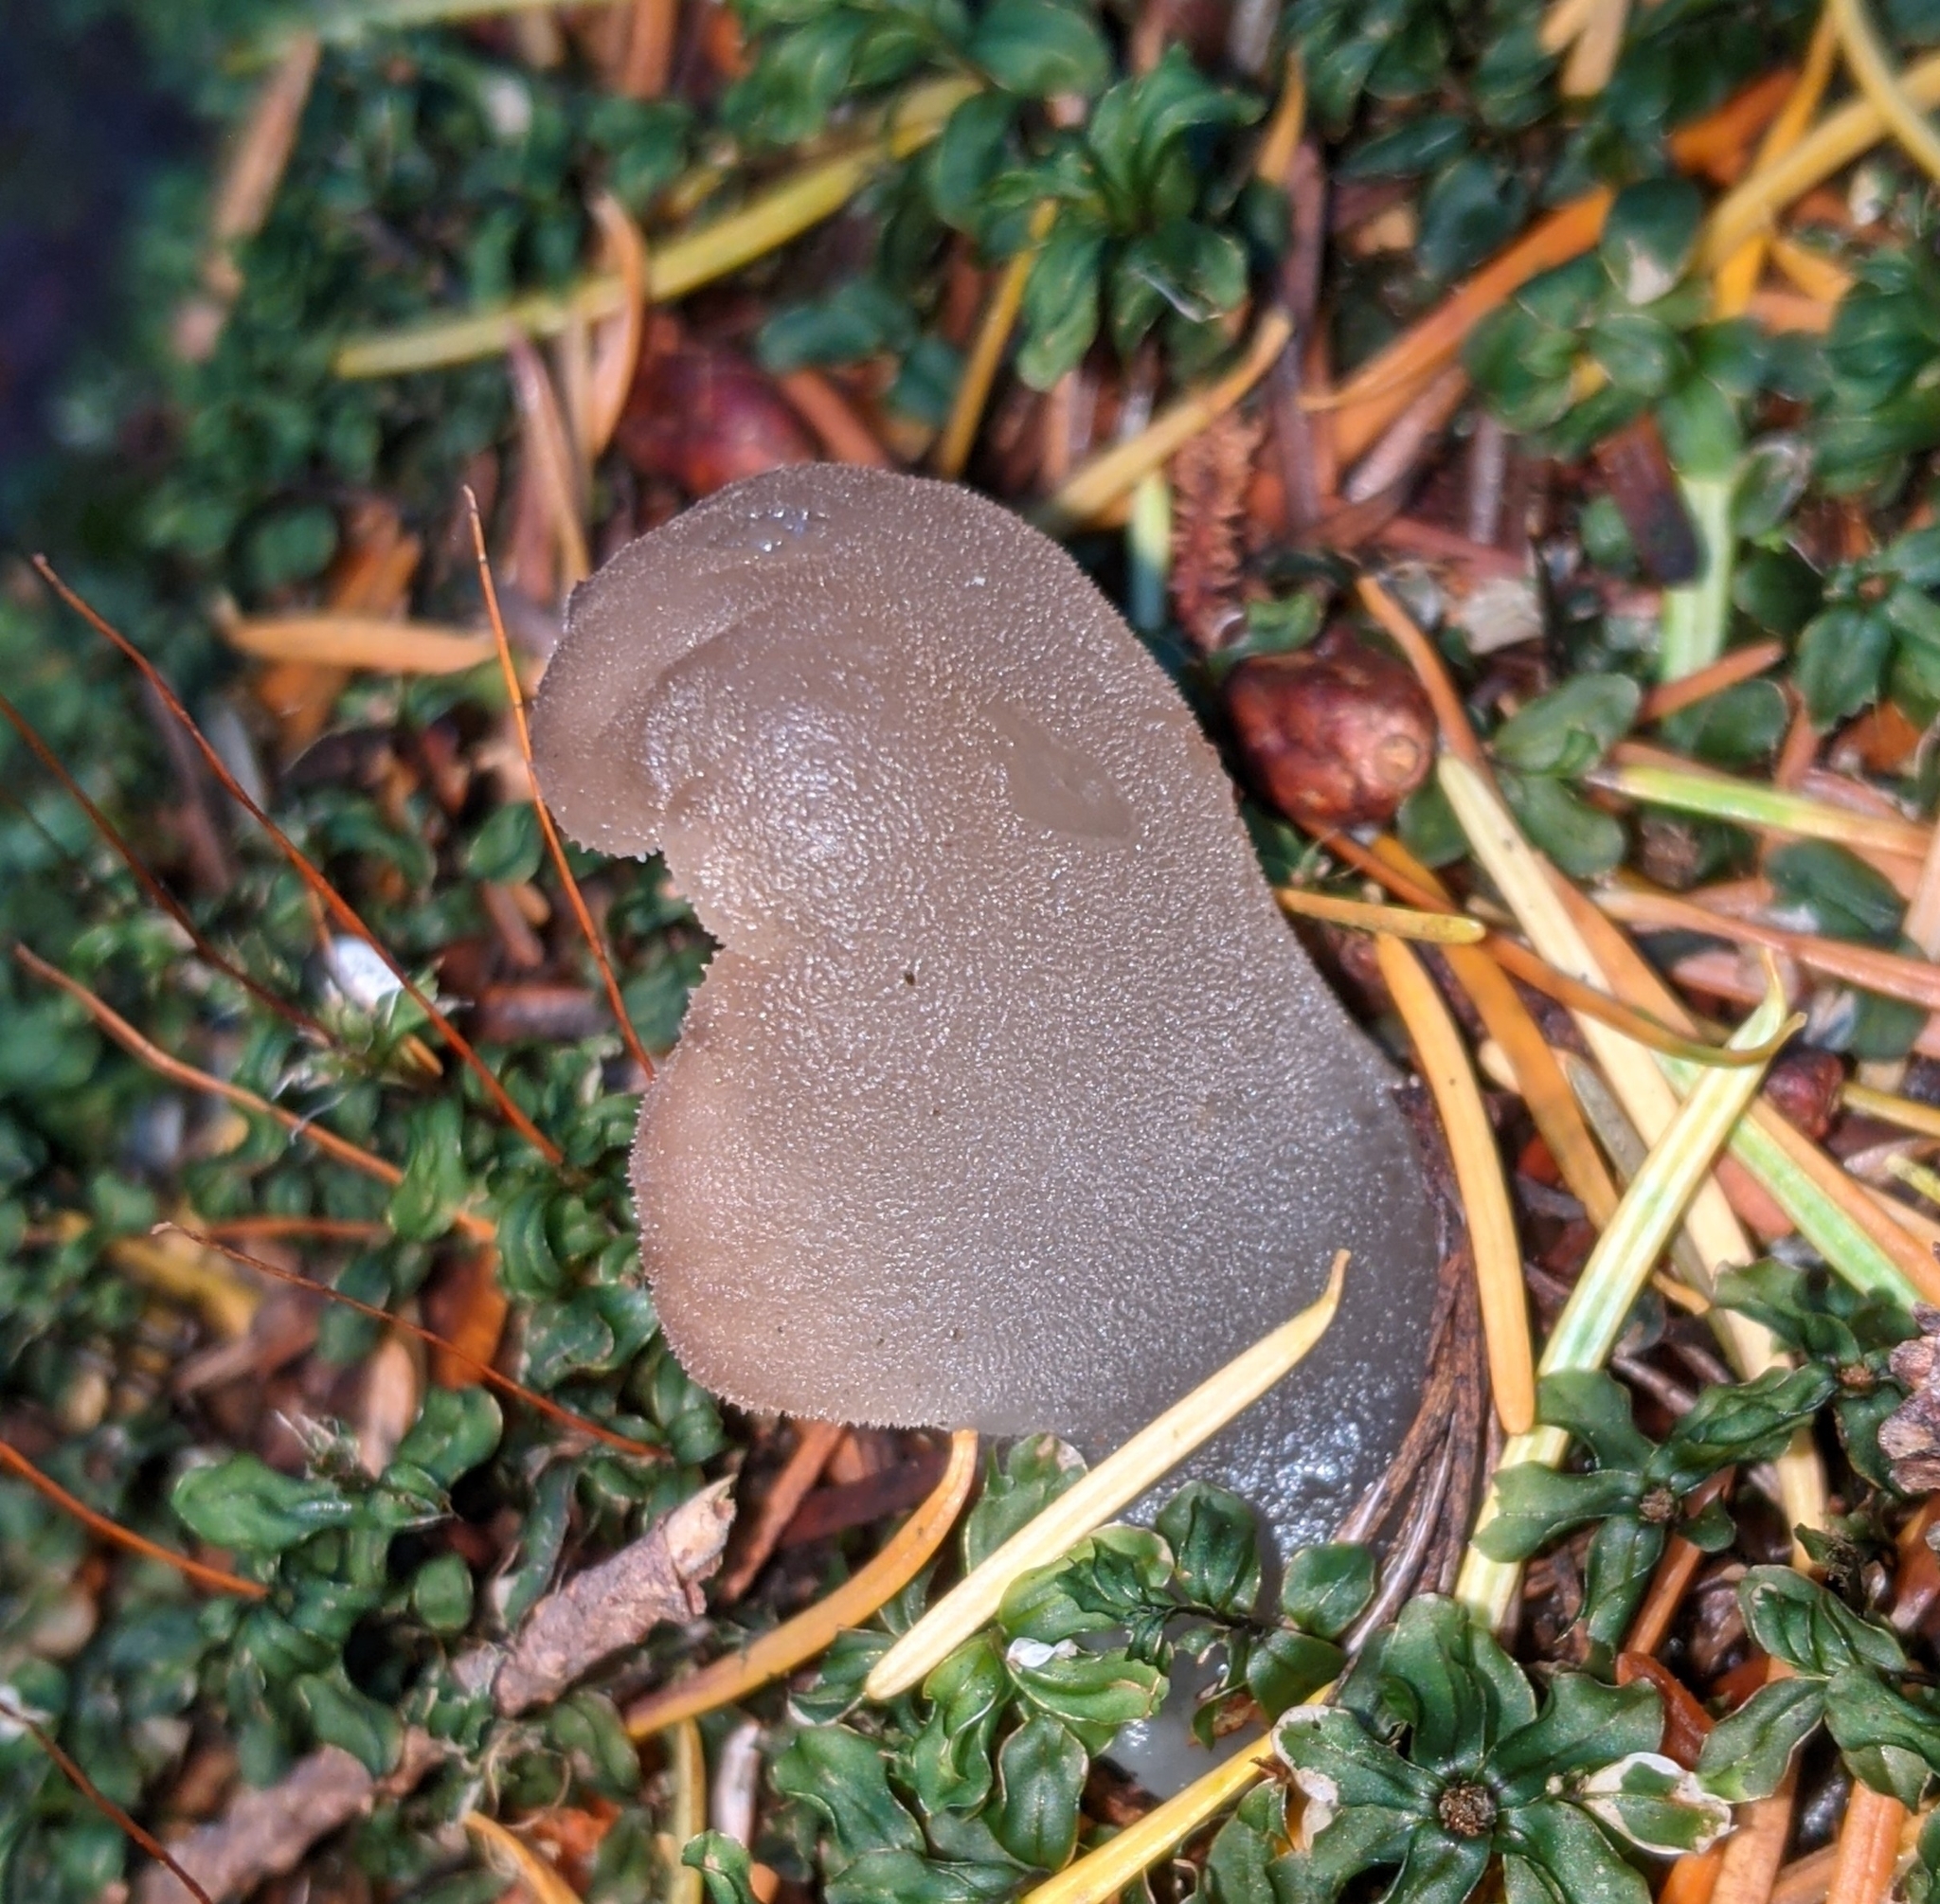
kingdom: Fungi
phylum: Basidiomycota
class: Agaricomycetes
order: Auriculariales
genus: Pseudohydnum
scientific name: Pseudohydnum gelatinosum
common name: Jelly tongue
